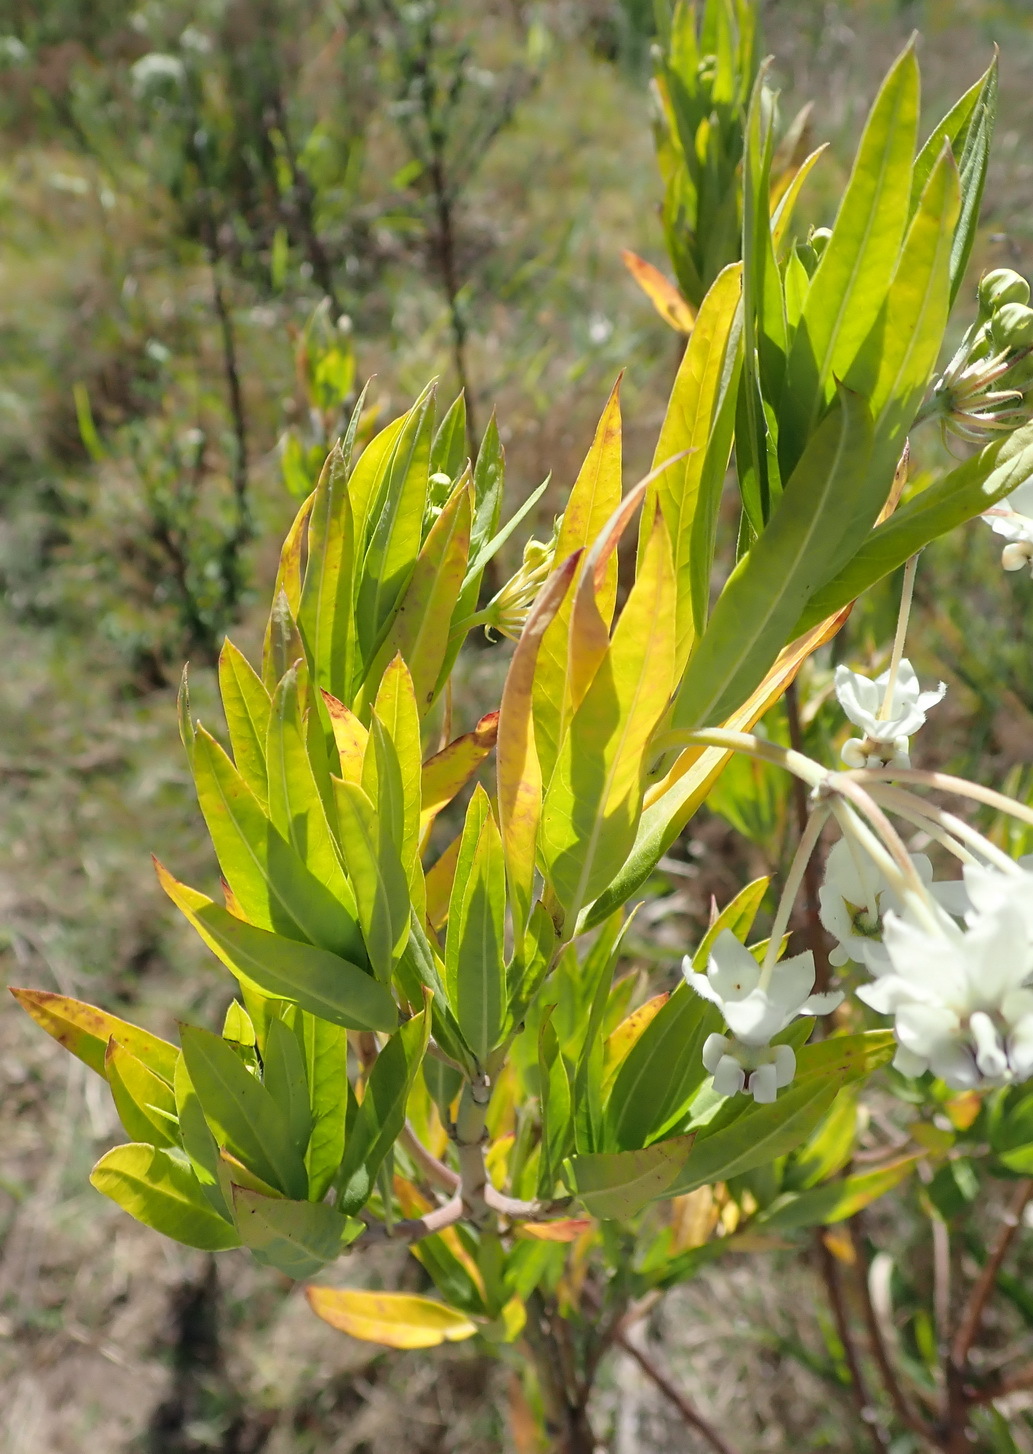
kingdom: Plantae
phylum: Tracheophyta
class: Magnoliopsida
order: Gentianales
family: Apocynaceae
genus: Gomphocarpus
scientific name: Gomphocarpus physocarpus
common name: Balloon cotton bush
